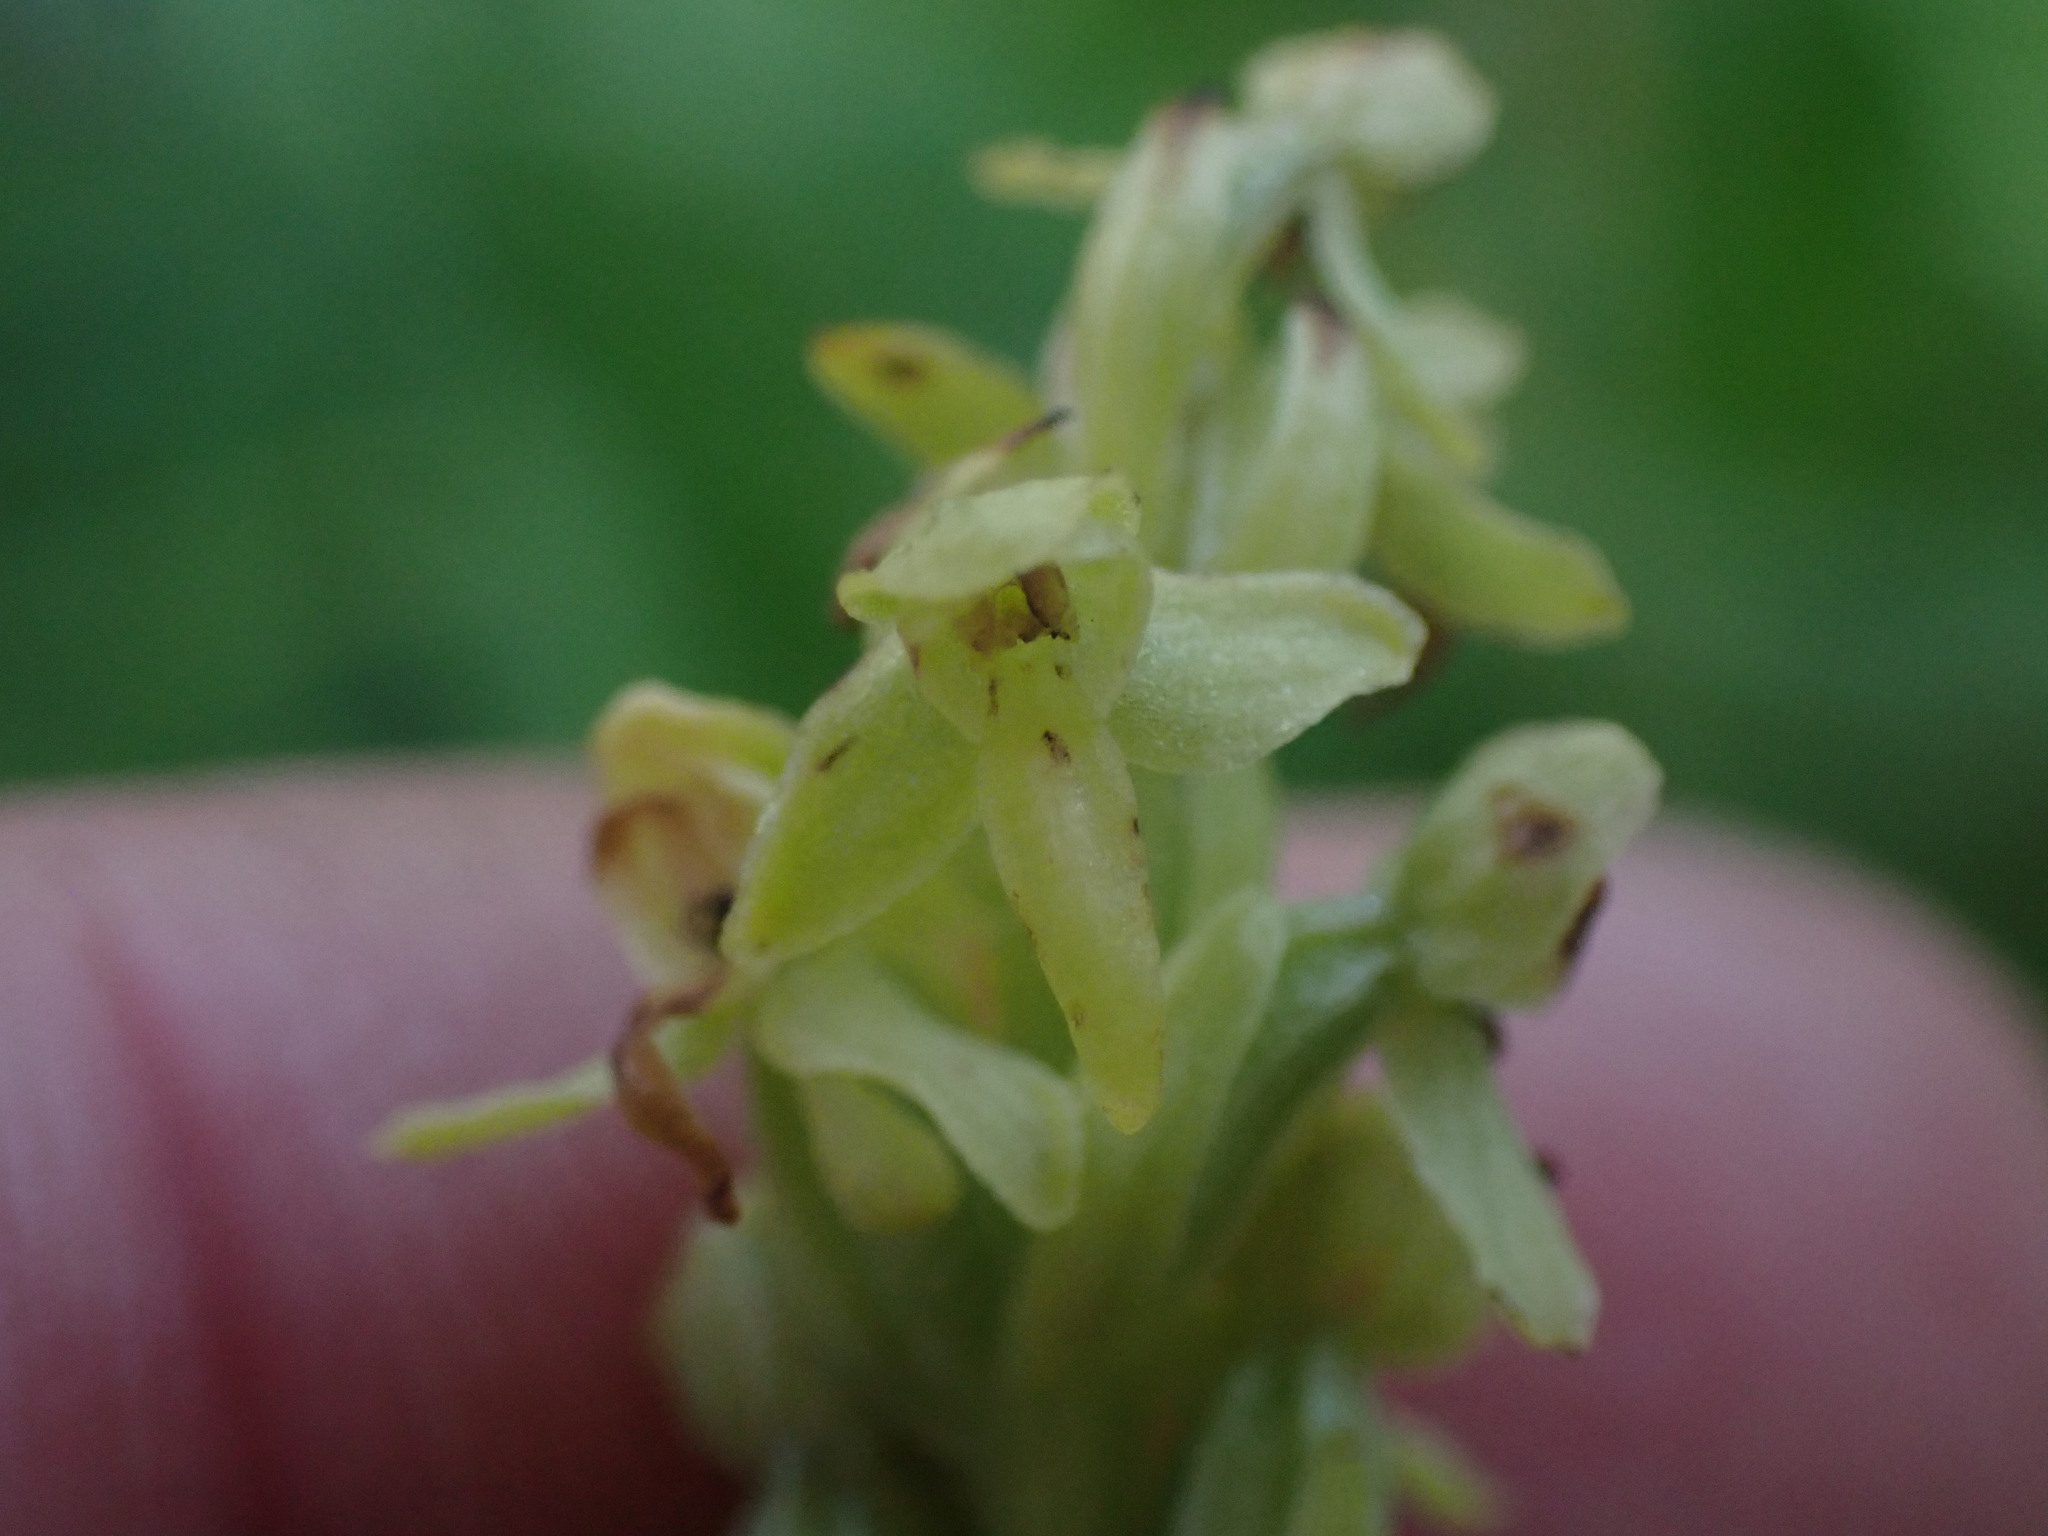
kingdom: Plantae
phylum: Tracheophyta
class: Liliopsida
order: Asparagales
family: Orchidaceae
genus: Platanthera
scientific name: Platanthera stricta
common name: Slender bog orchid
